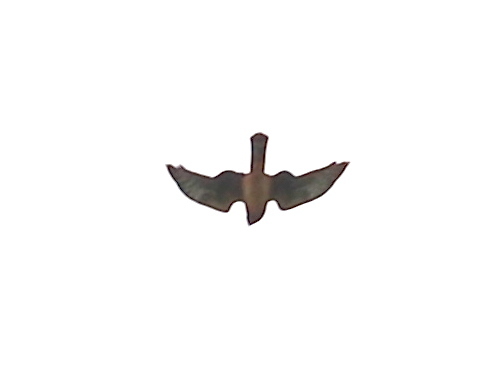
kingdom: Animalia
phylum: Chordata
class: Aves
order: Accipitriformes
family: Accipitridae
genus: Circus
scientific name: Circus cyaneus
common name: Hen harrier
